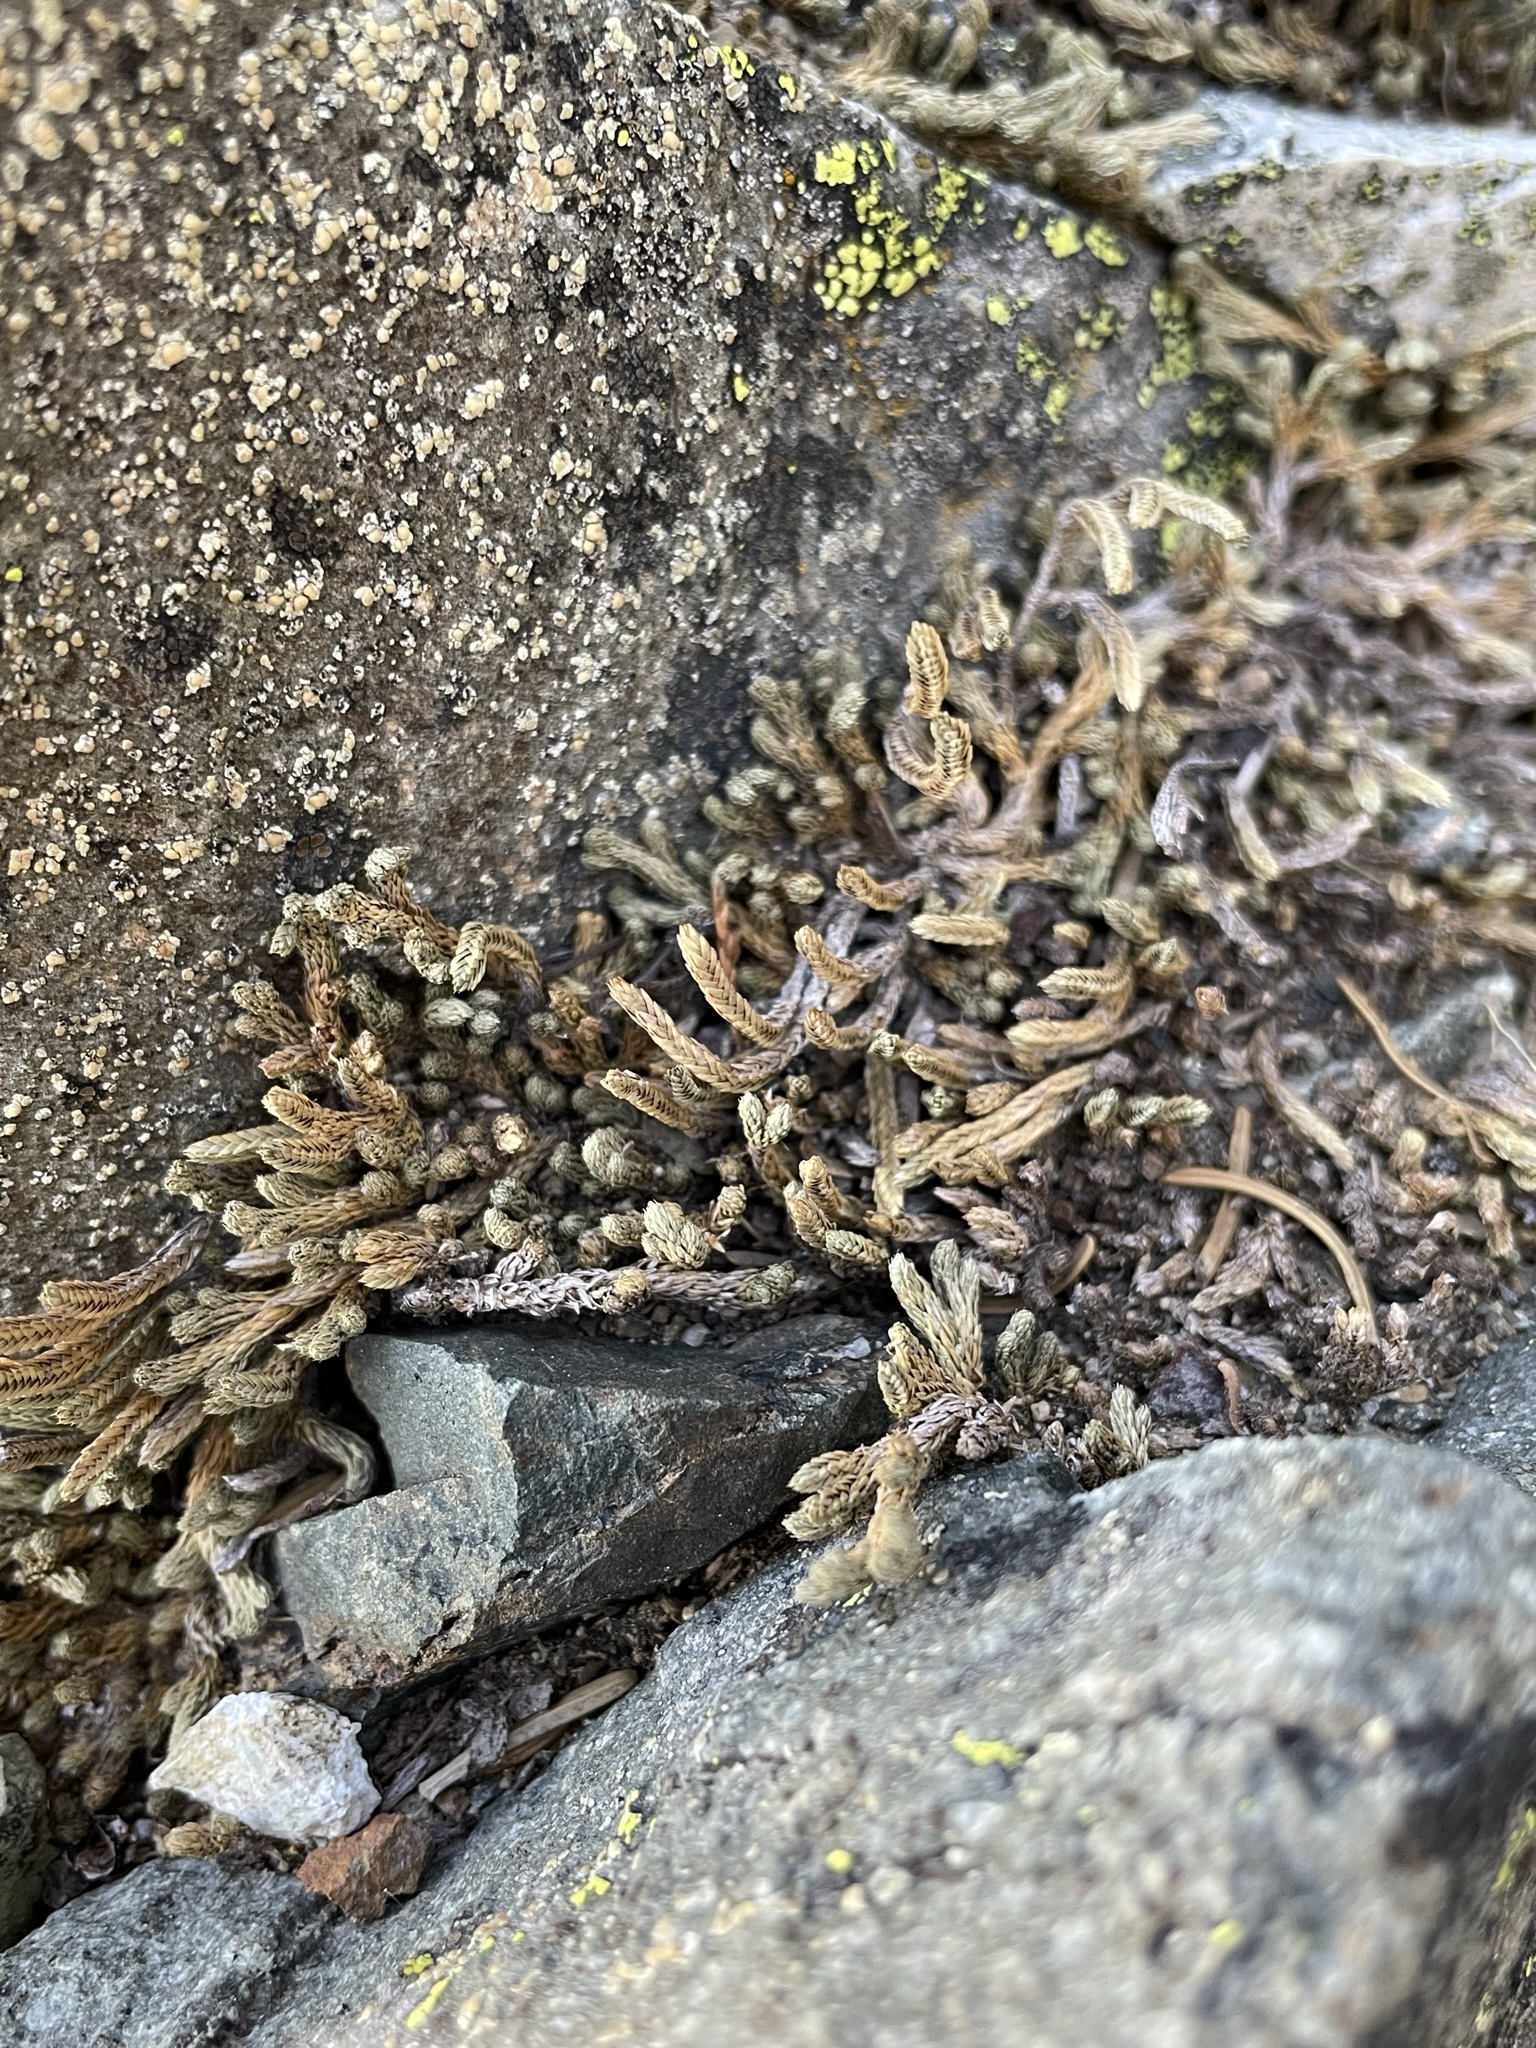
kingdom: Plantae
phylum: Tracheophyta
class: Lycopodiopsida
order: Selaginellales
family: Selaginellaceae
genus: Selaginella
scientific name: Selaginella wallacei
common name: Wallace's selaginella
